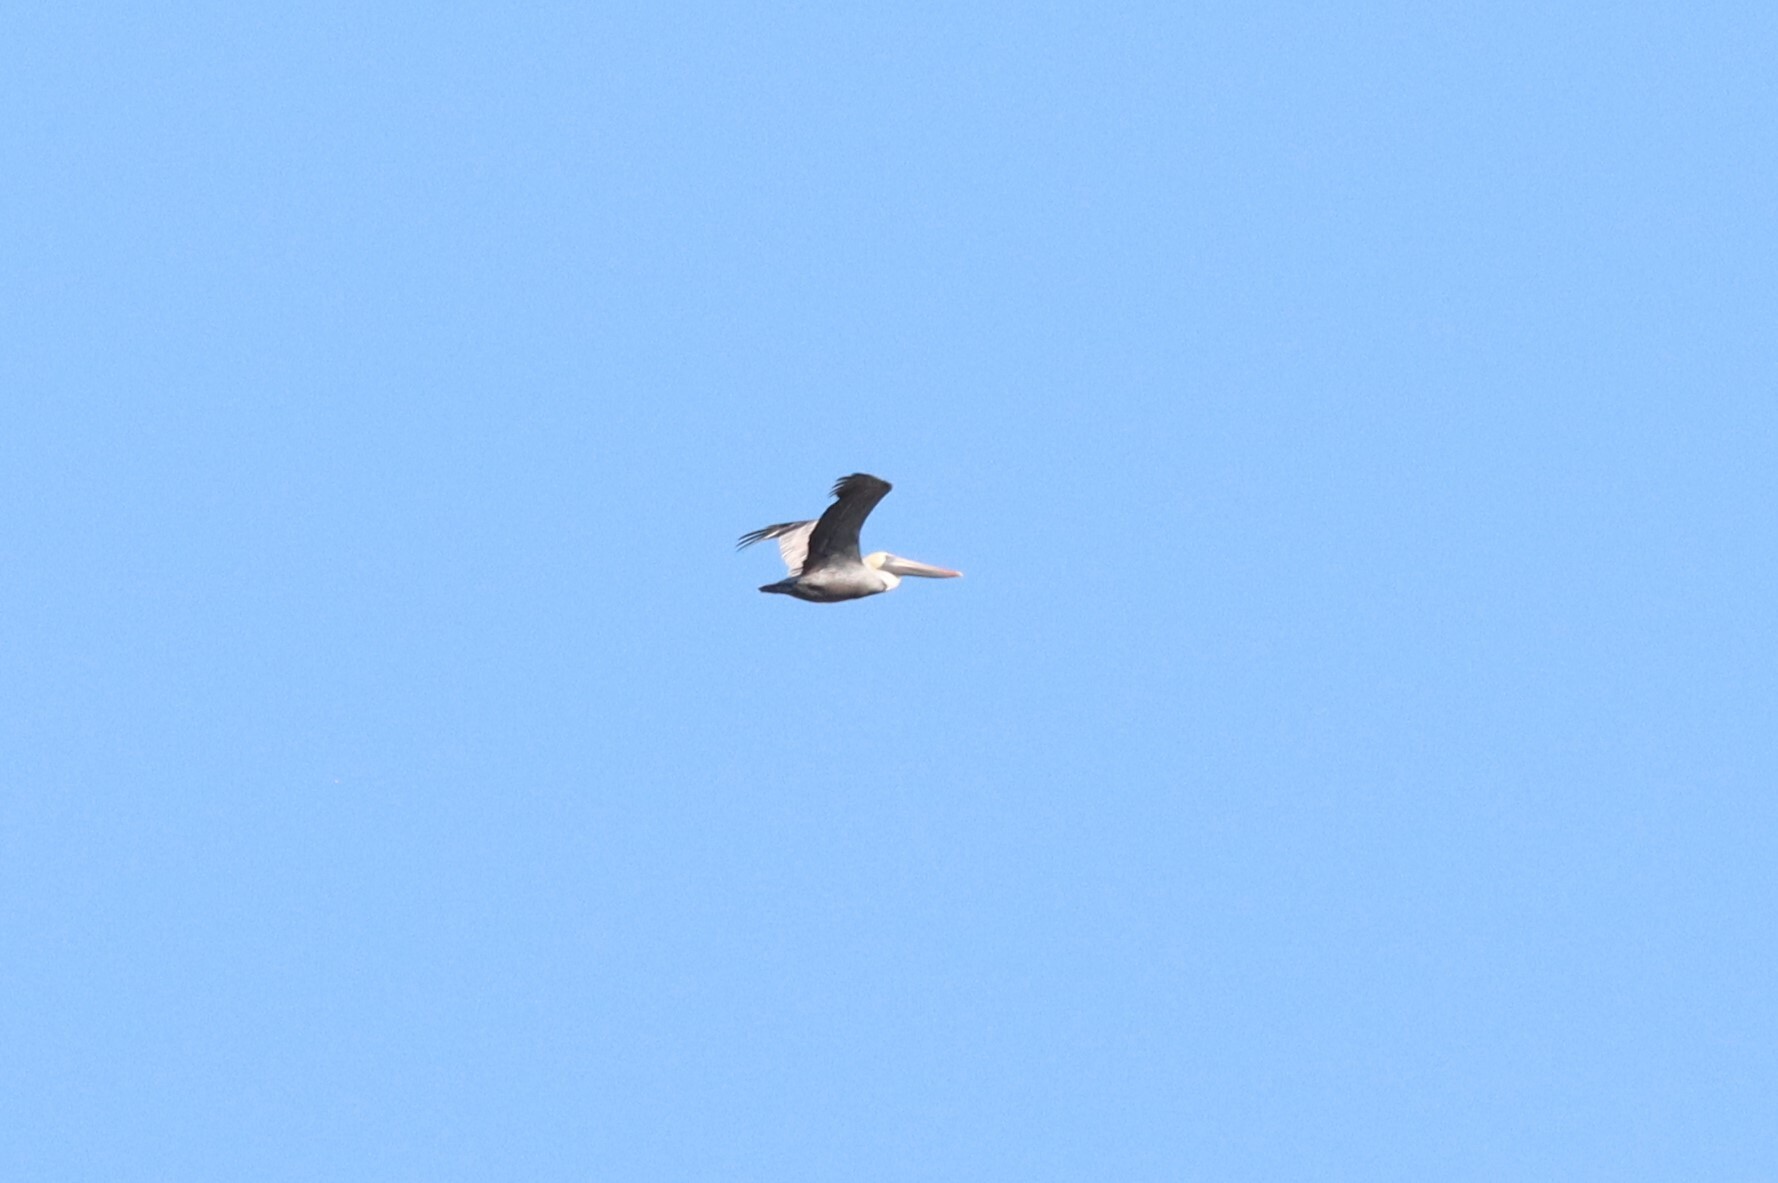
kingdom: Animalia
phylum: Chordata
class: Aves
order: Pelecaniformes
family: Pelecanidae
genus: Pelecanus
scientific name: Pelecanus occidentalis
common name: Brown pelican
